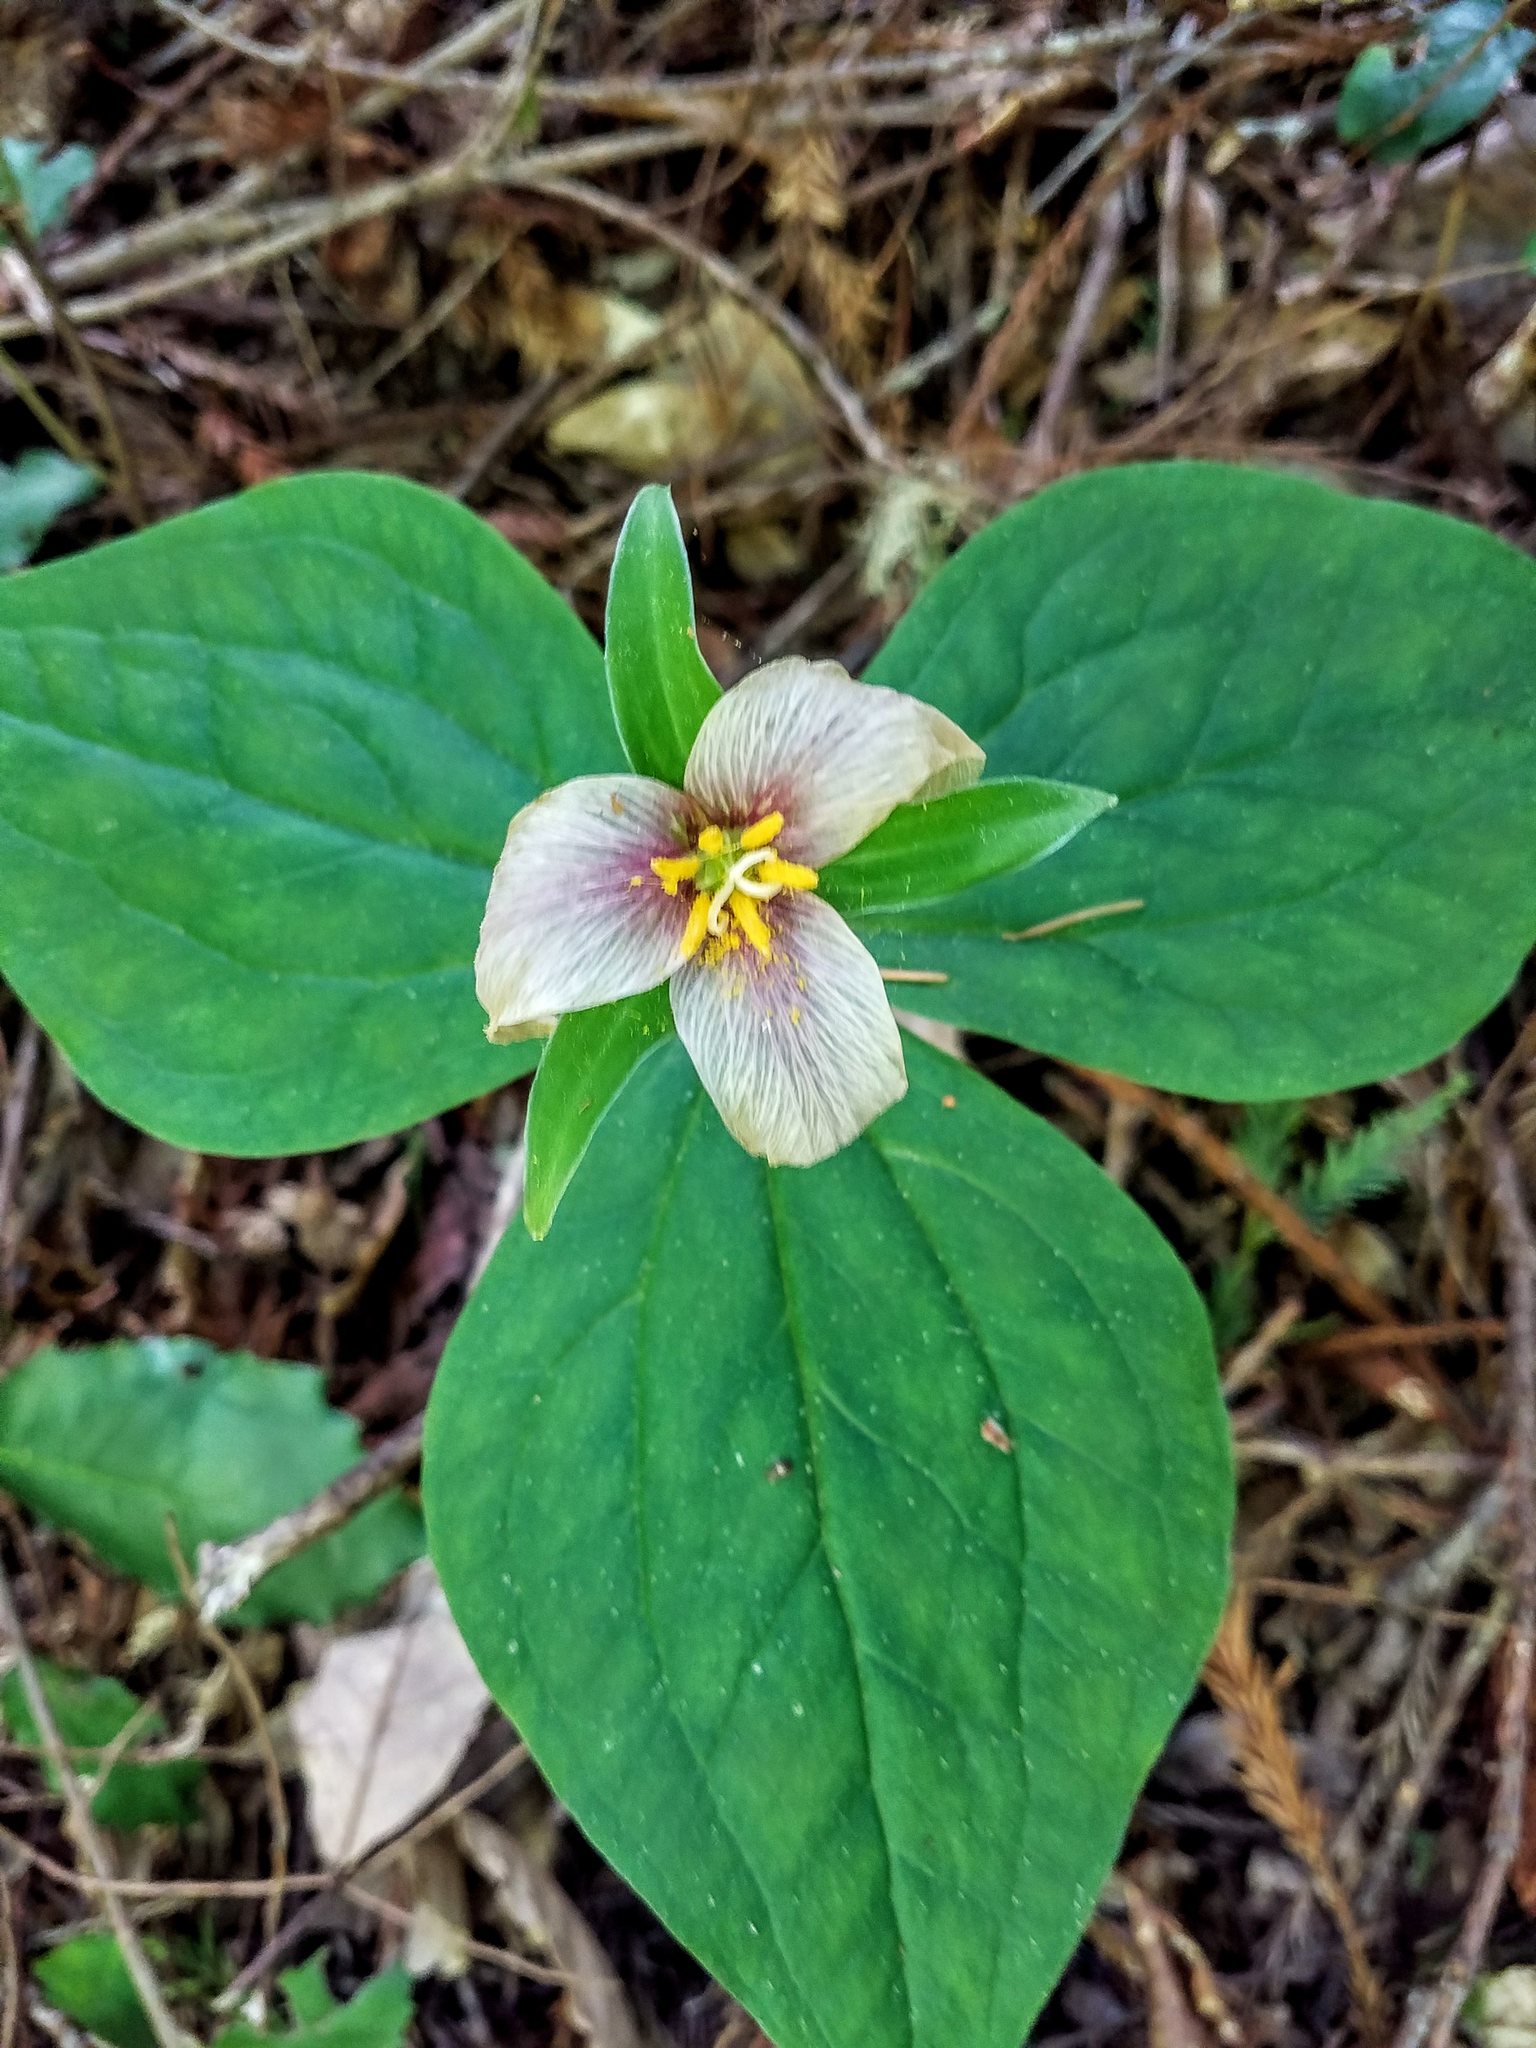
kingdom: Plantae
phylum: Tracheophyta
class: Liliopsida
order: Liliales
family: Melanthiaceae
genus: Trillium
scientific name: Trillium ovatum
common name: Pacific trillium
